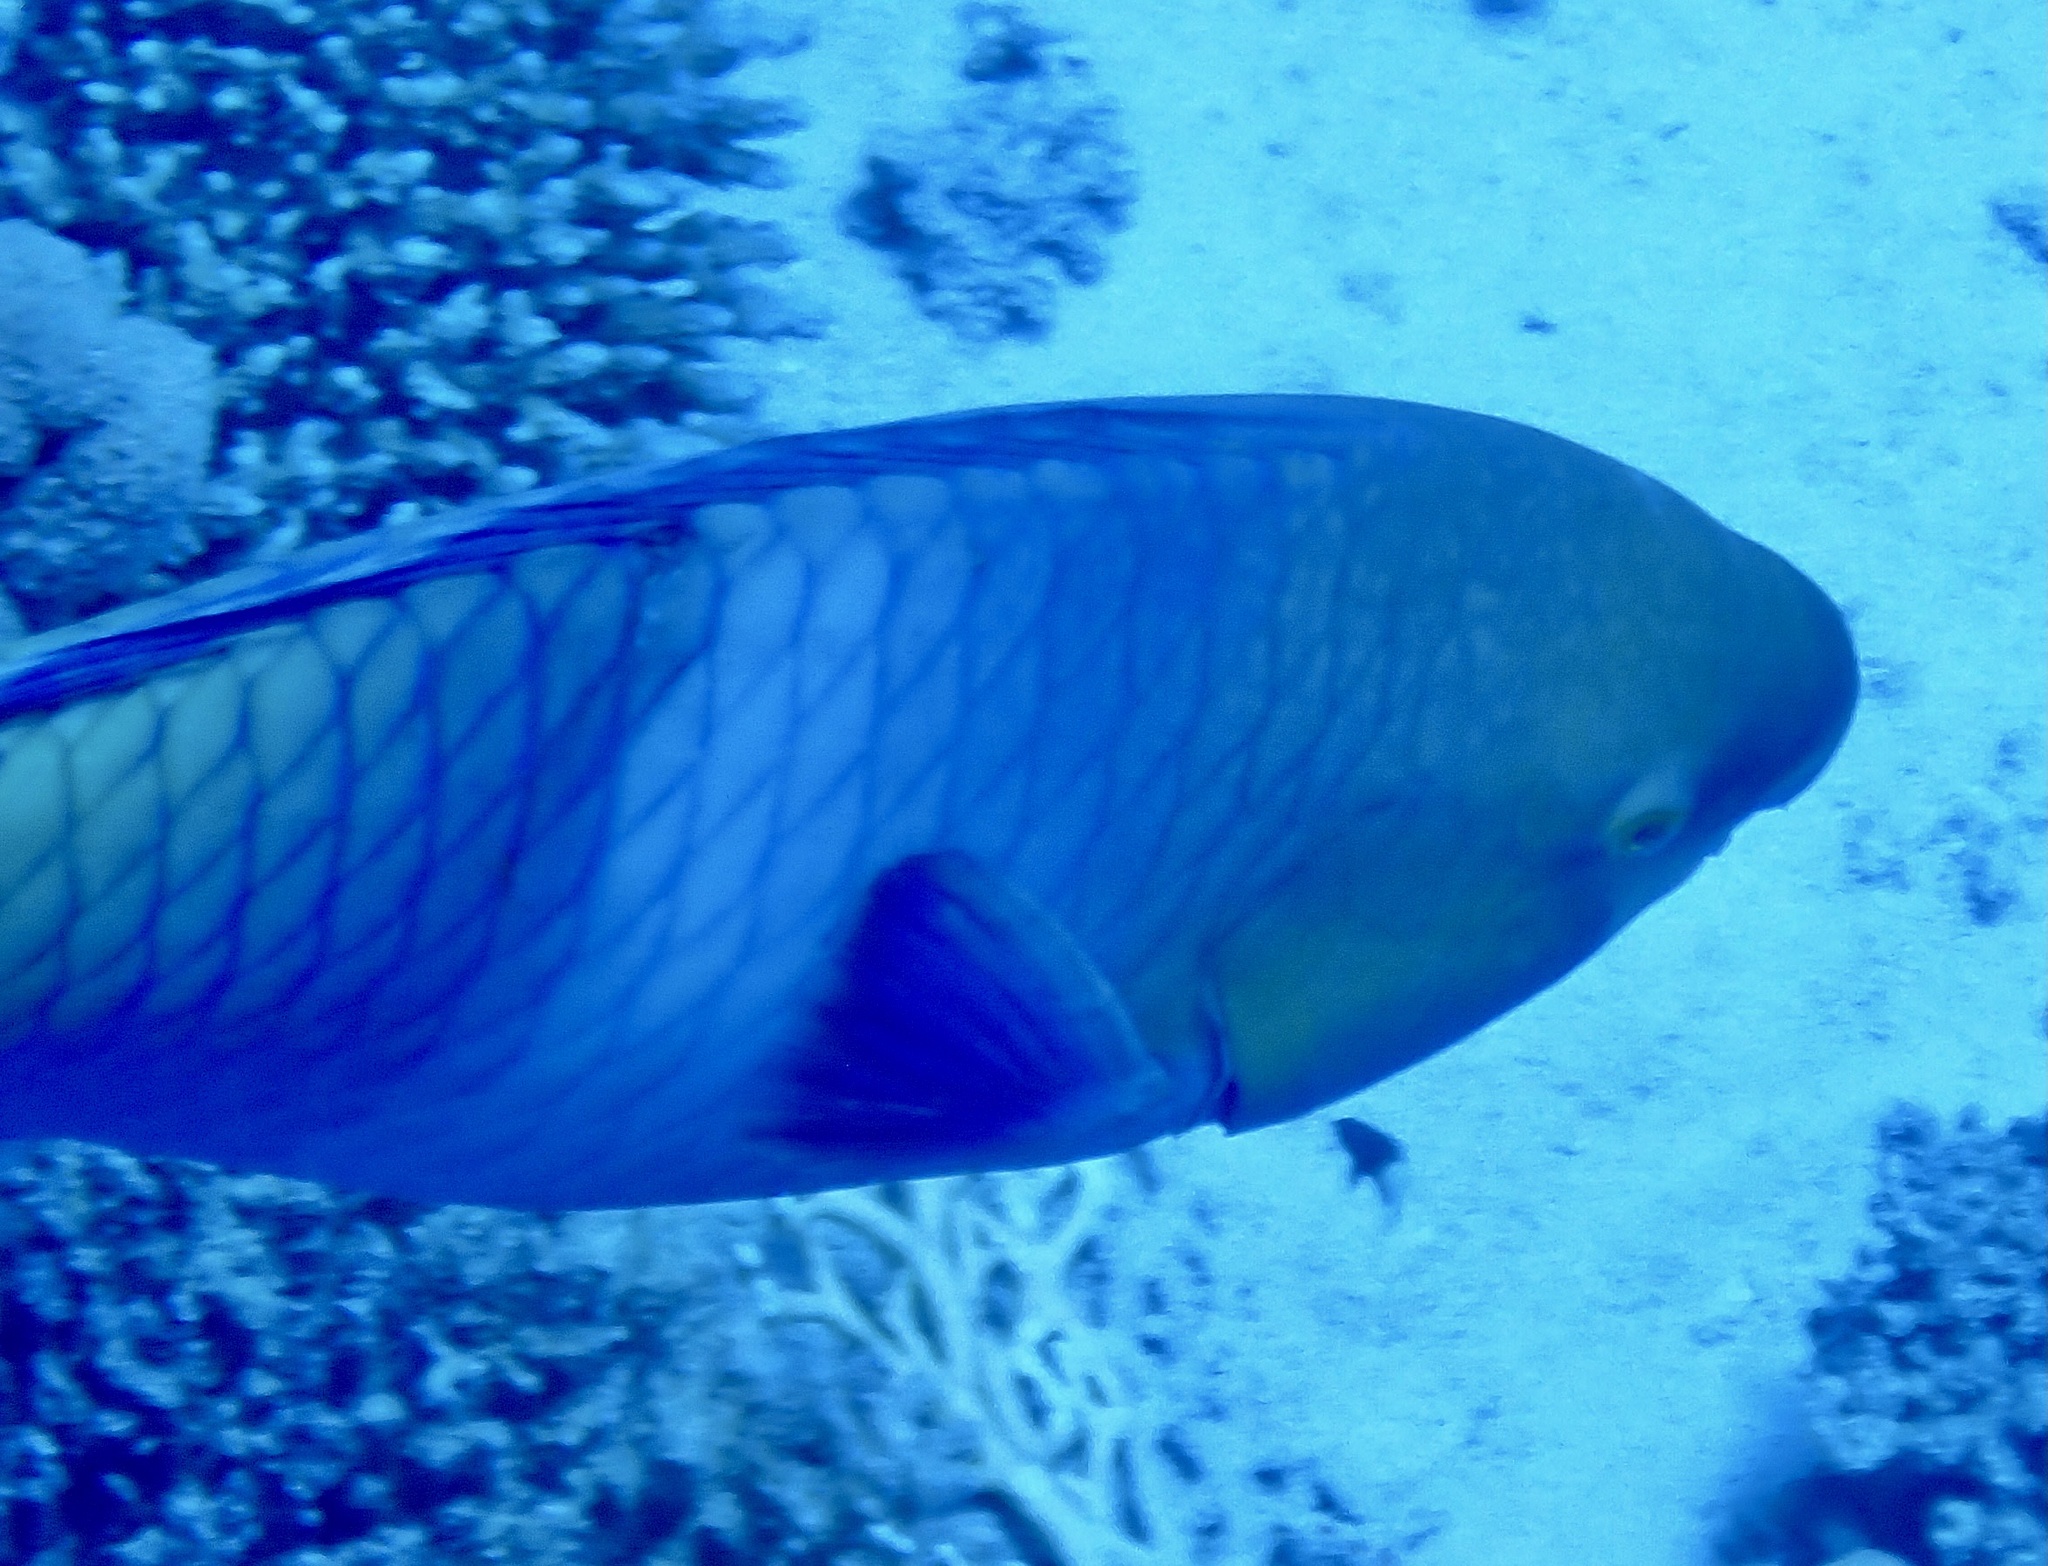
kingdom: Animalia
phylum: Chordata
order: Perciformes
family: Scaridae
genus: Scarus
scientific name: Scarus ferrugineus
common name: Rusty parrotfish
